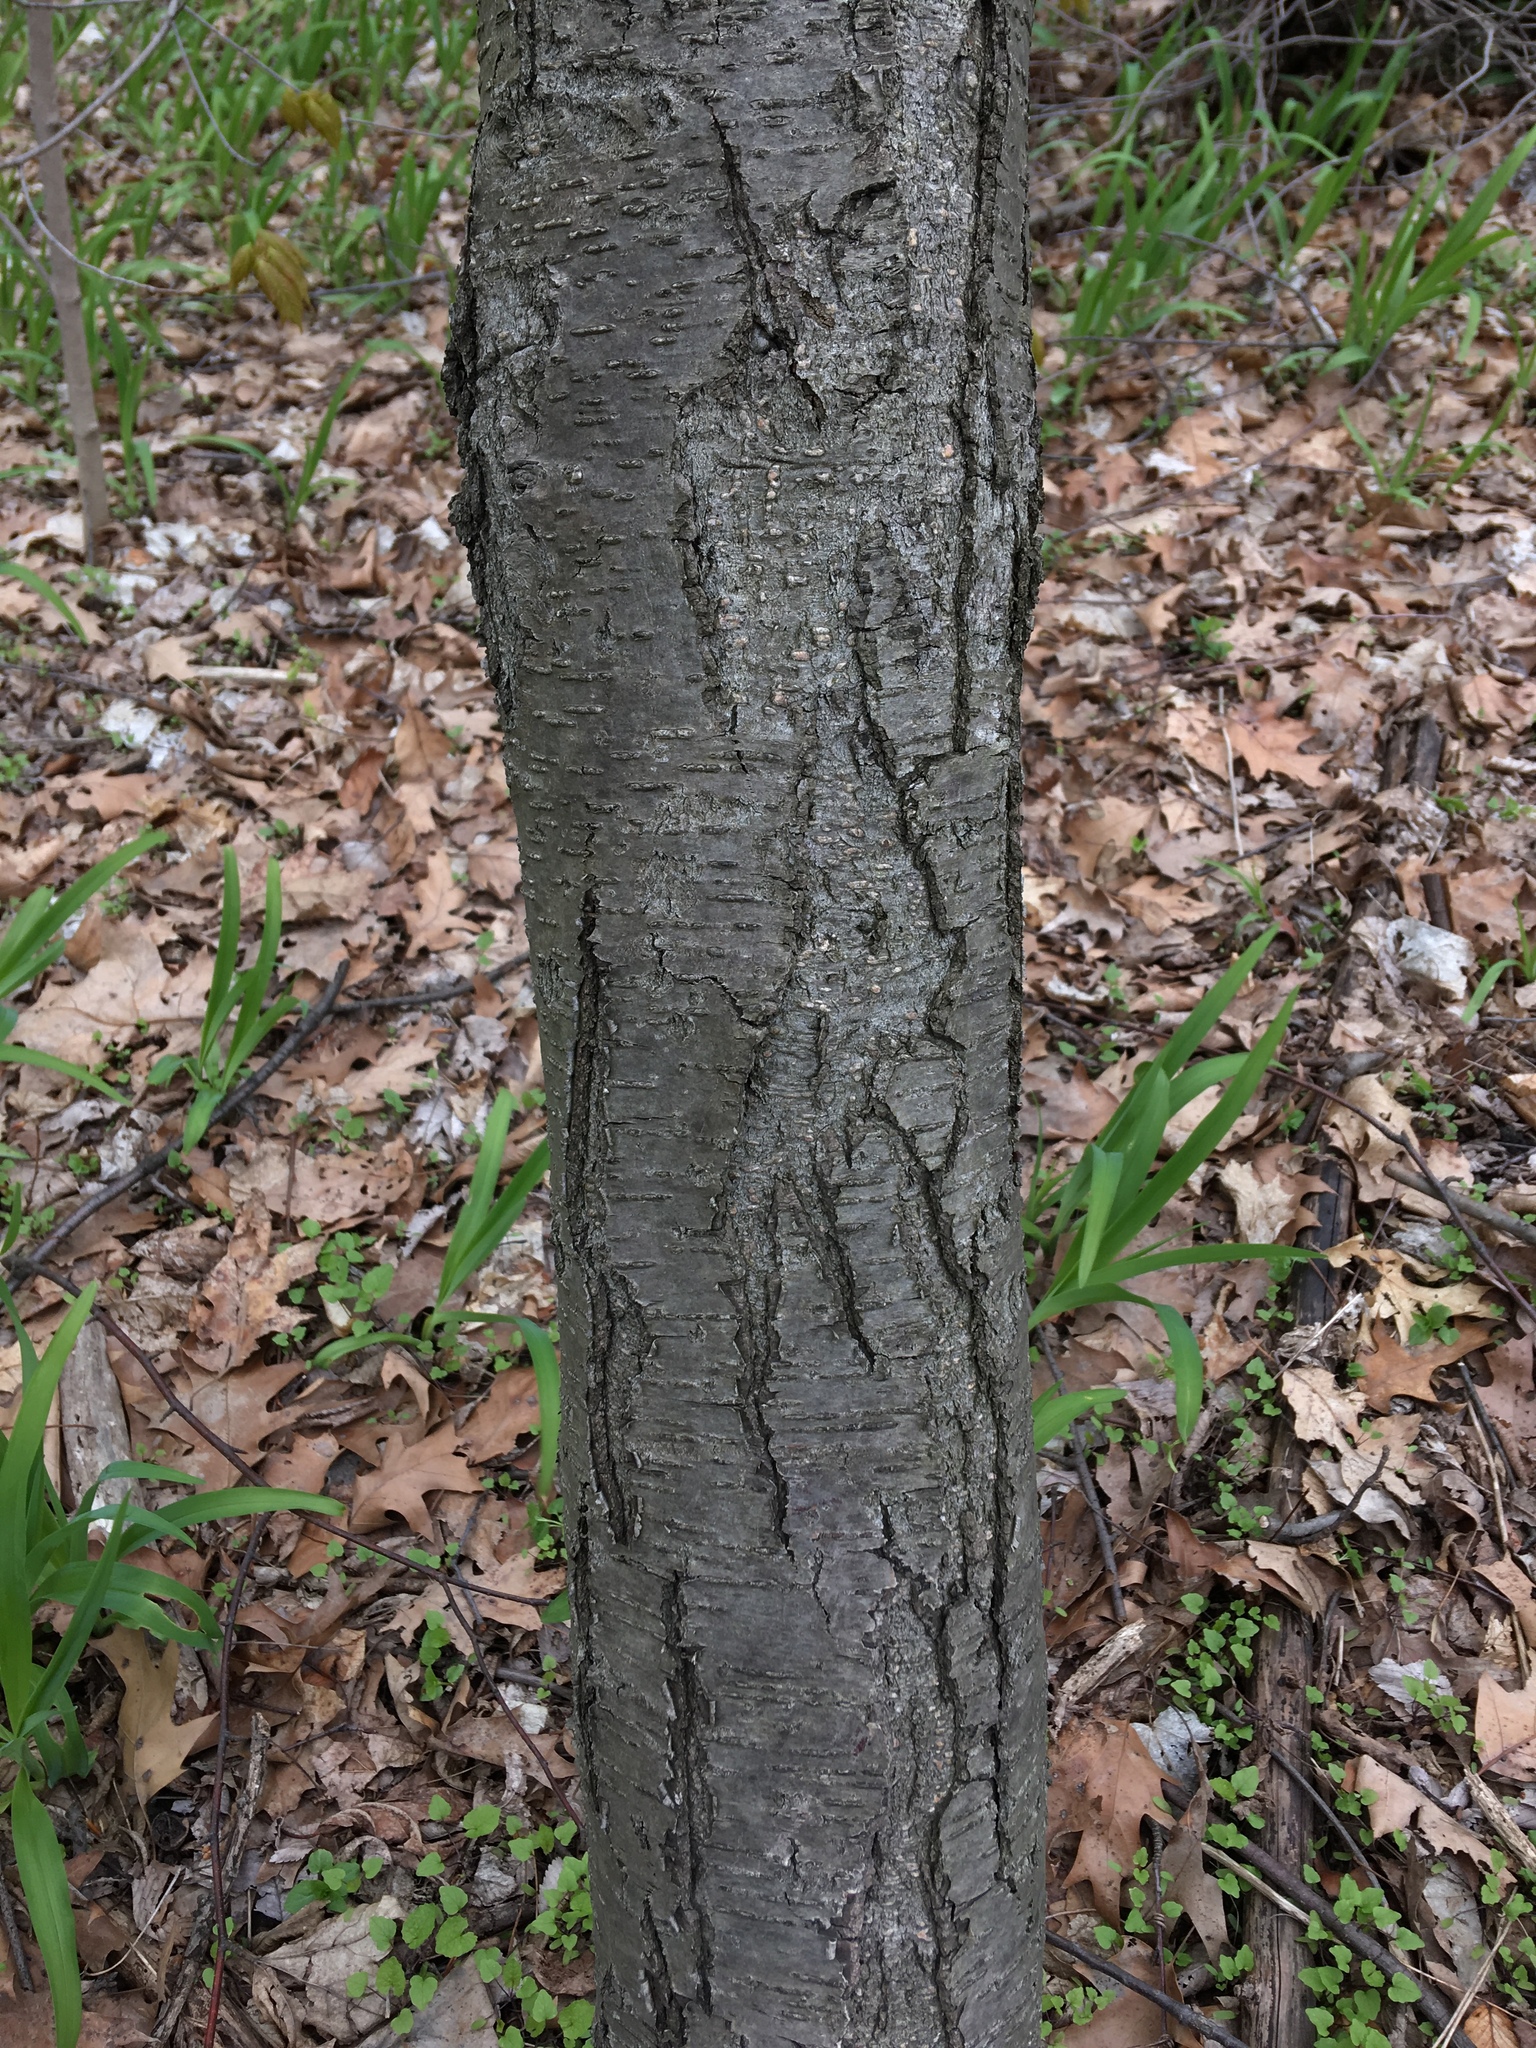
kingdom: Plantae
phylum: Tracheophyta
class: Magnoliopsida
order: Fagales
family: Betulaceae
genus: Betula
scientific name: Betula lenta
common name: Black birch
